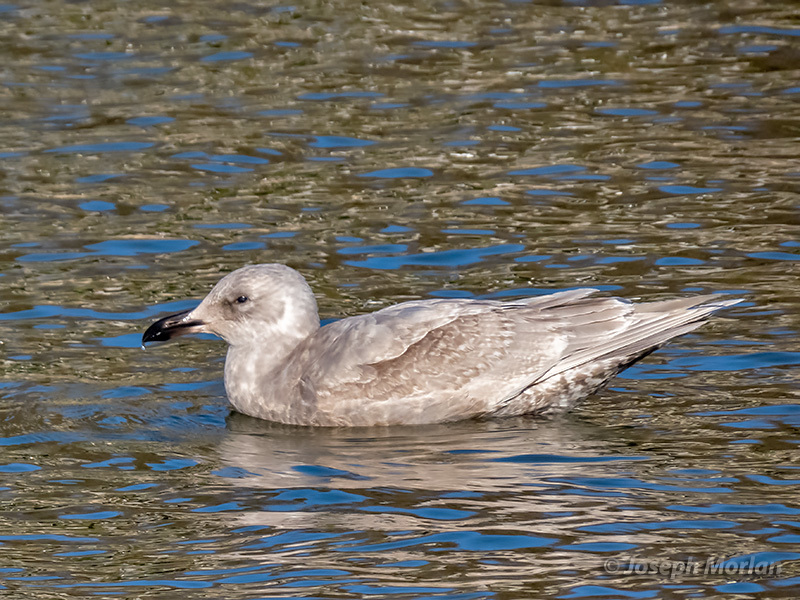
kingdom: Animalia
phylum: Chordata
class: Aves
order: Charadriiformes
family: Laridae
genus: Larus
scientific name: Larus glaucescens
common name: Glaucous-winged gull
